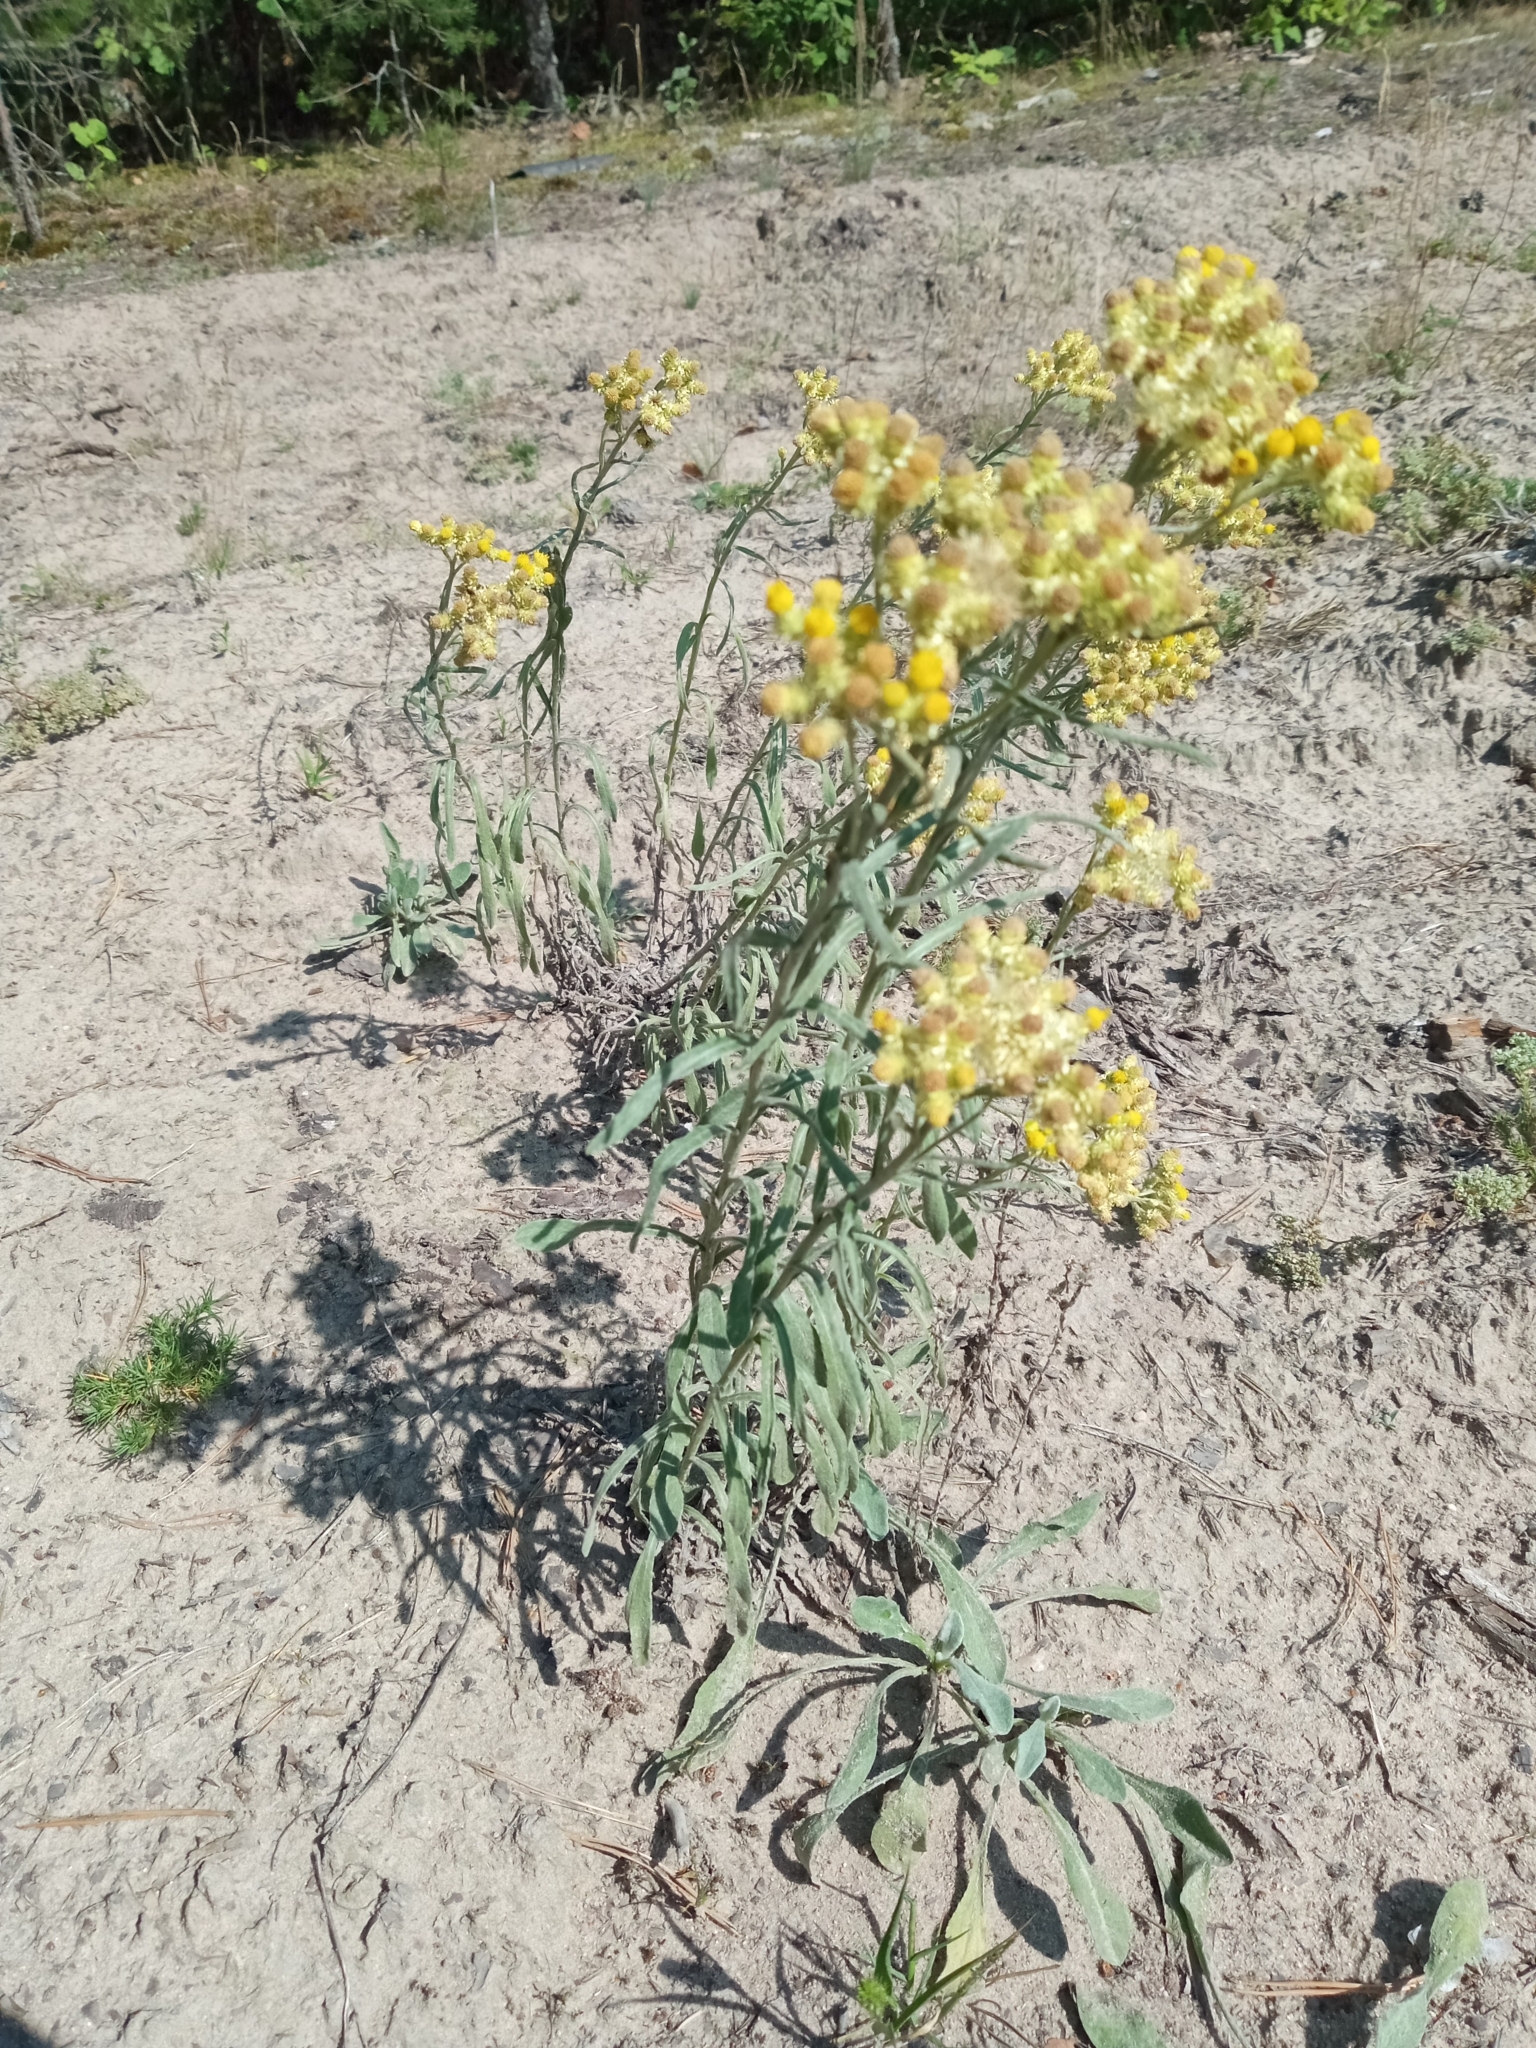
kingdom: Plantae
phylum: Tracheophyta
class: Magnoliopsida
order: Asterales
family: Asteraceae
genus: Helichrysum
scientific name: Helichrysum arenarium
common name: Strawflower
